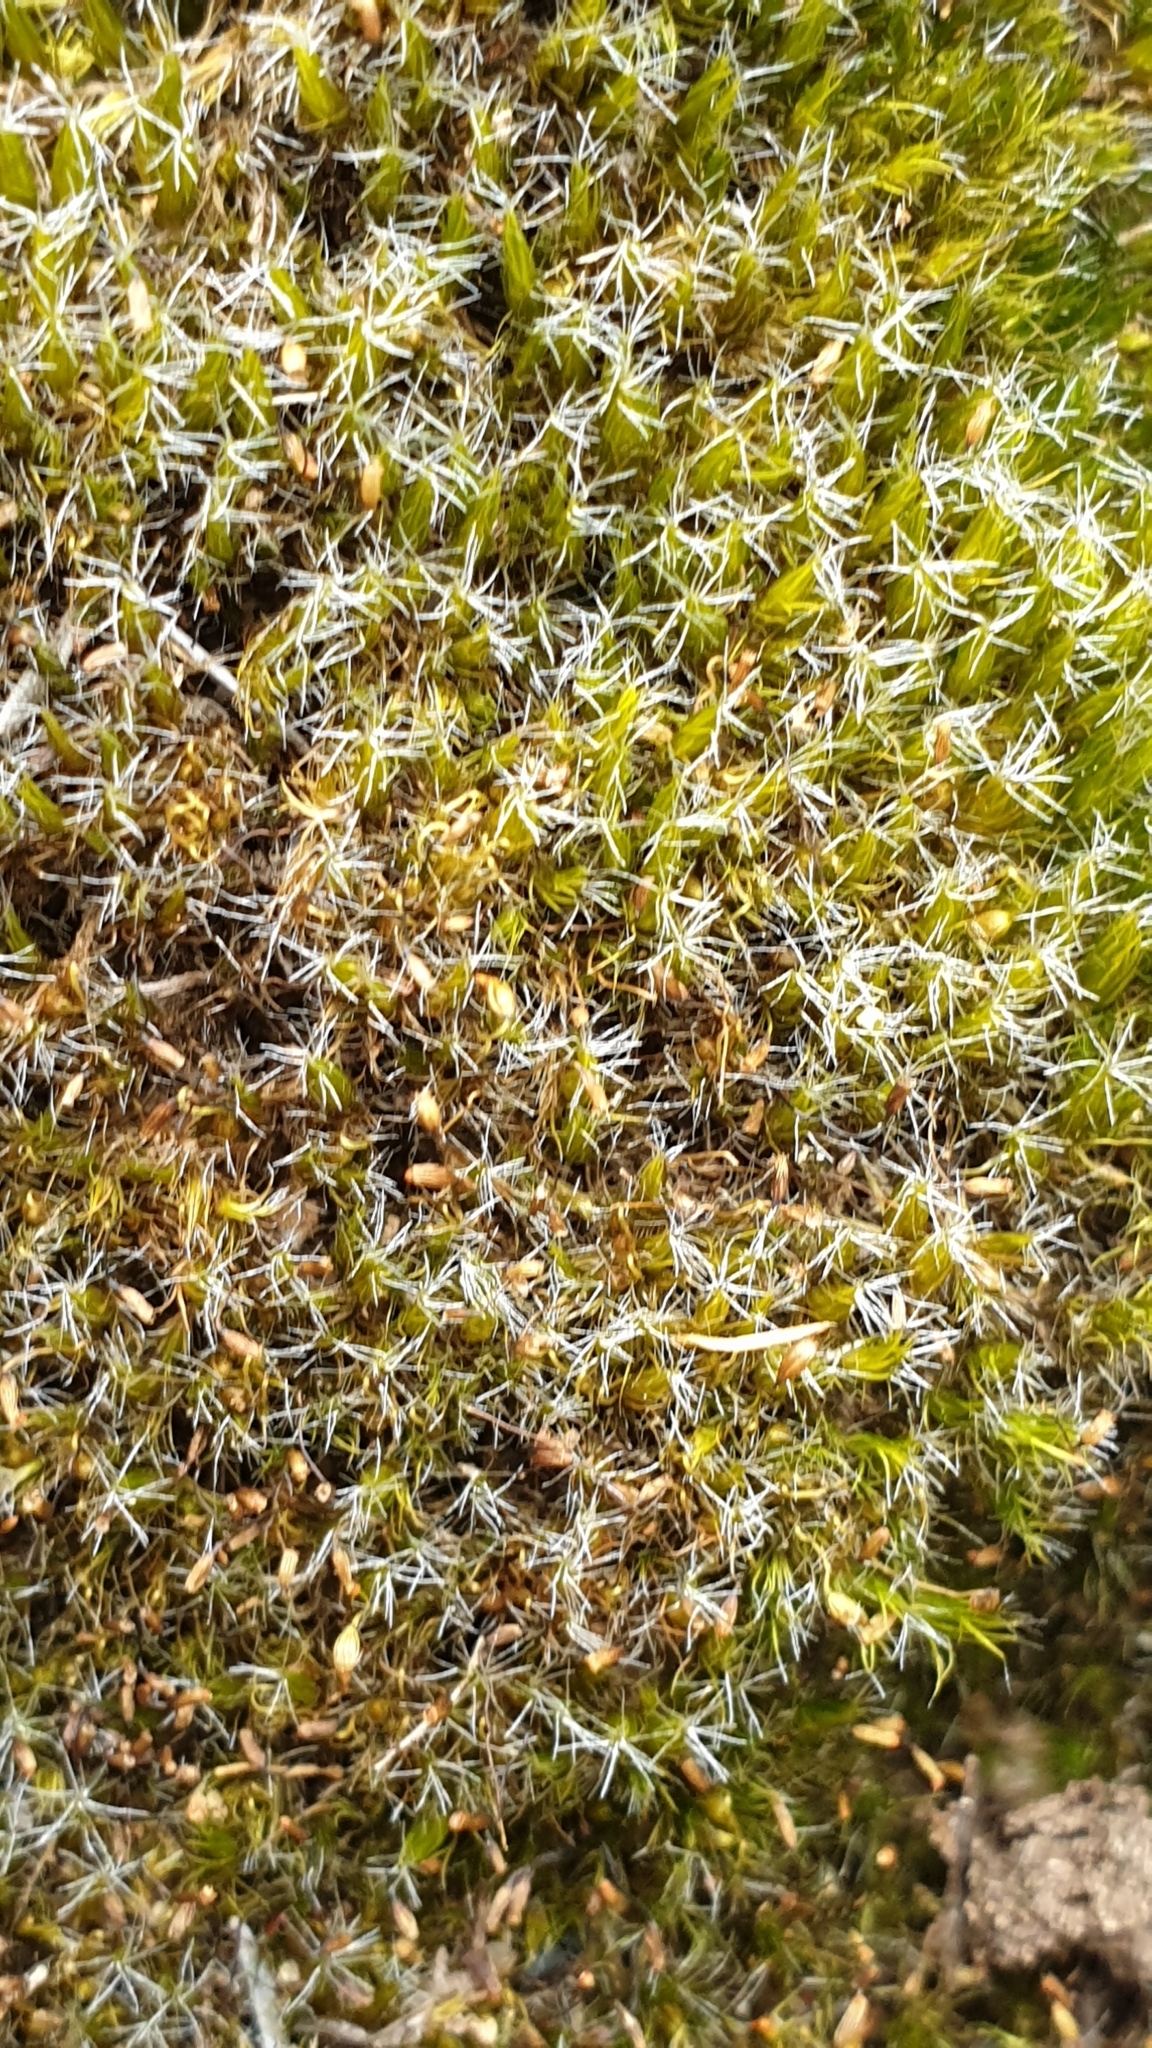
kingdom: Plantae
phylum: Bryophyta
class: Bryopsida
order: Dicranales
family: Leucobryaceae
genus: Campylopus
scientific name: Campylopus introflexus
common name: Heath star moss
